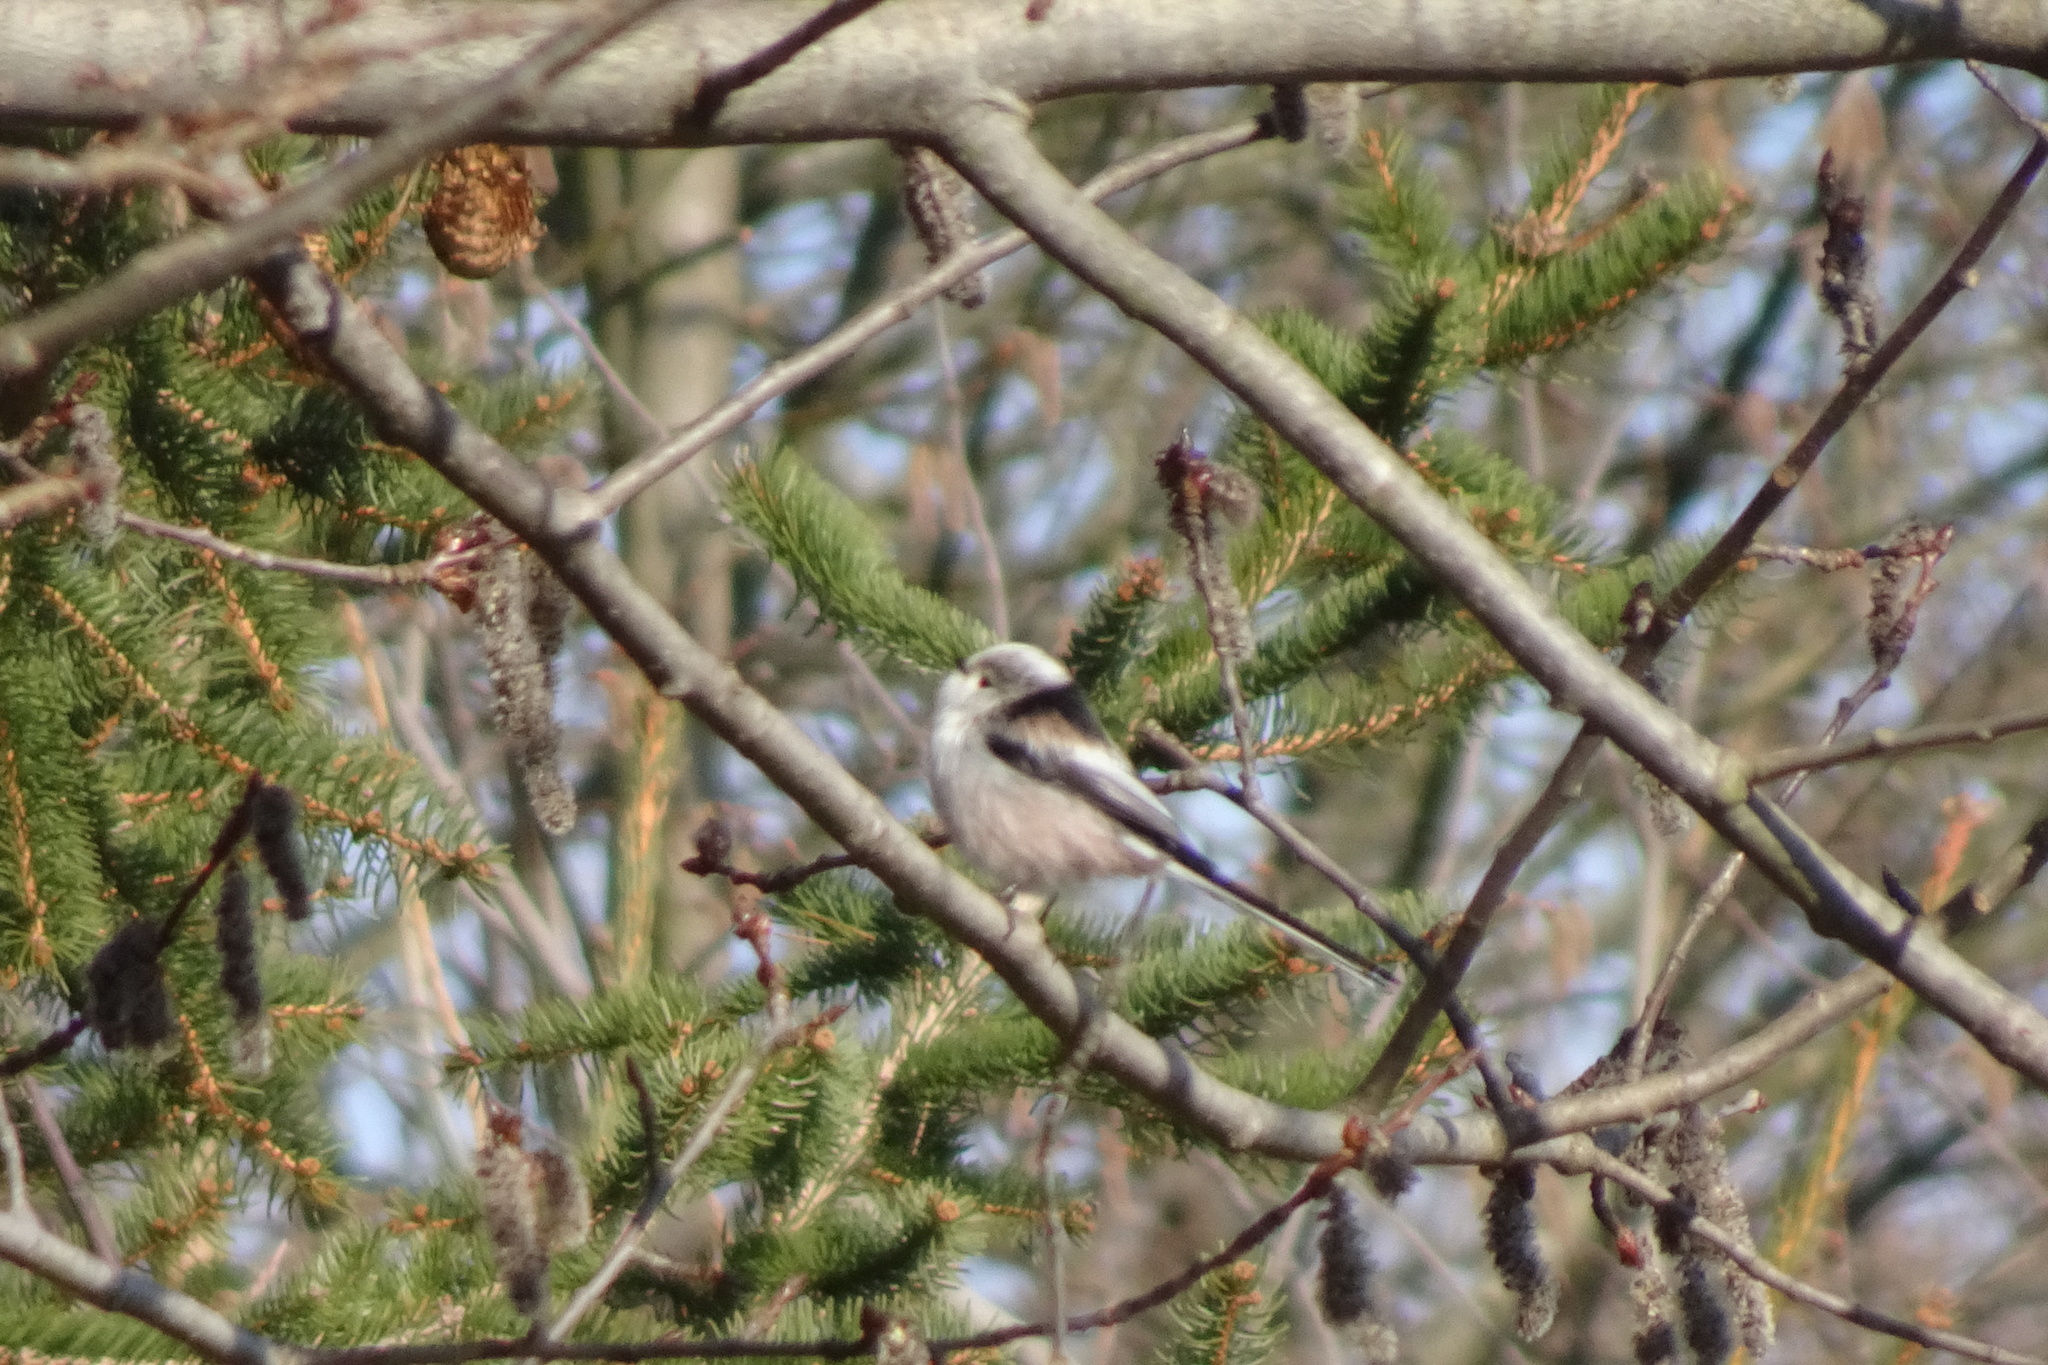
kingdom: Animalia
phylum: Chordata
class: Aves
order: Passeriformes
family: Aegithalidae
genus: Aegithalos
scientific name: Aegithalos caudatus
